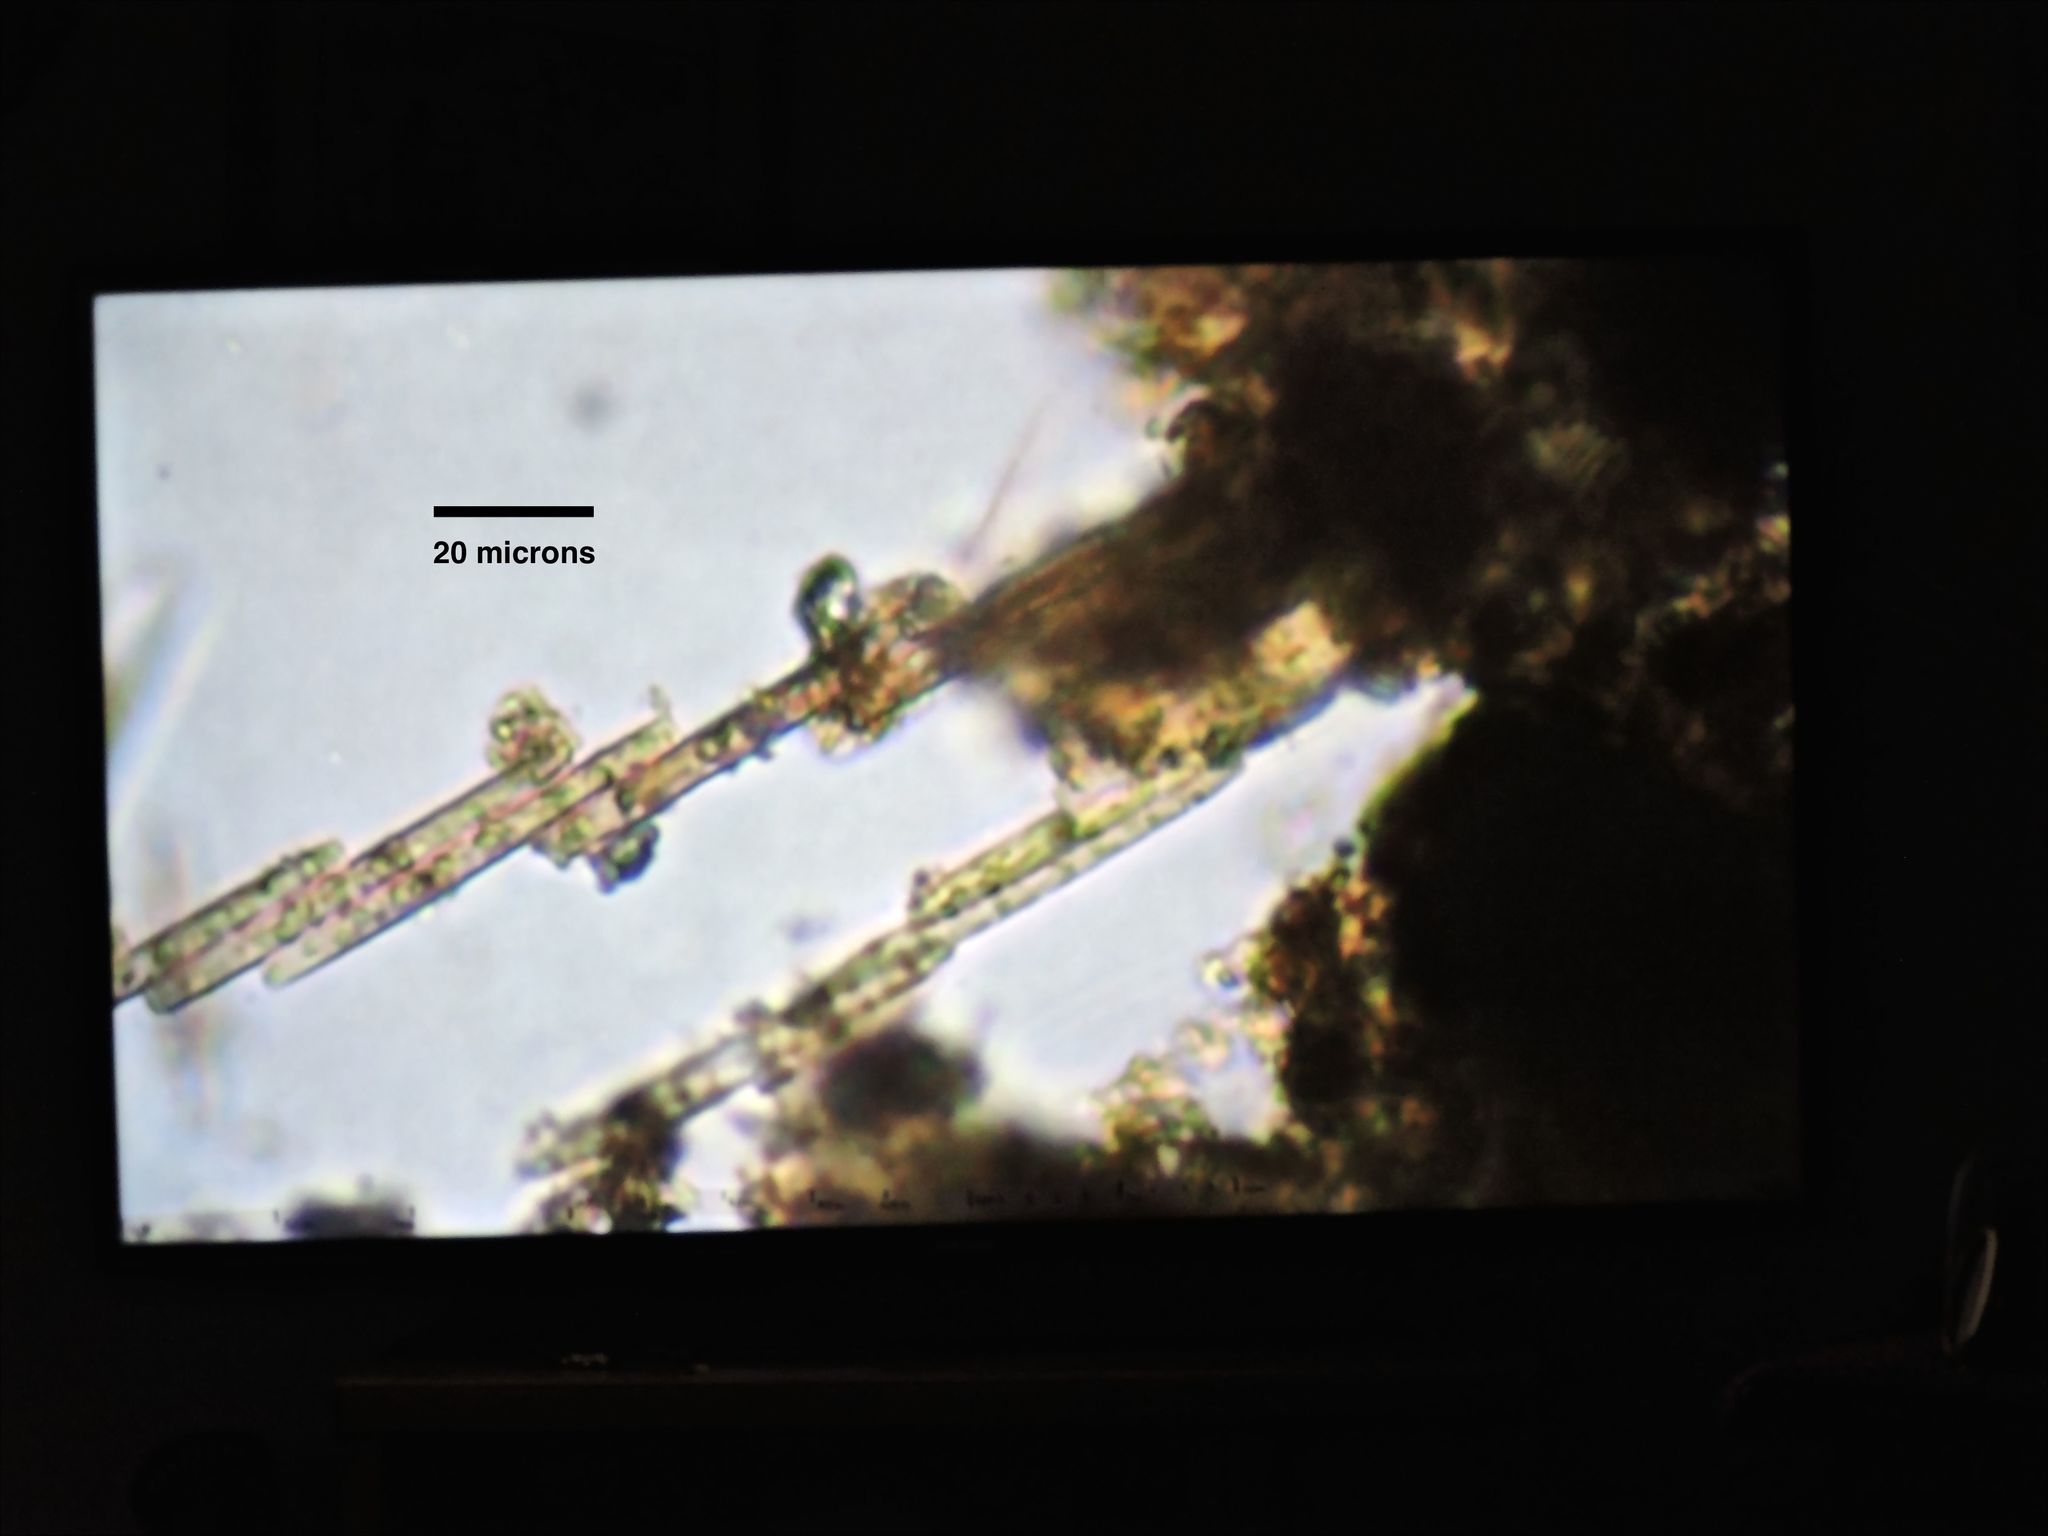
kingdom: Chromista
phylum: Ochrophyta
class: Bacillariophyceae
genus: Vibrio
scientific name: Vibrio paxillifer
